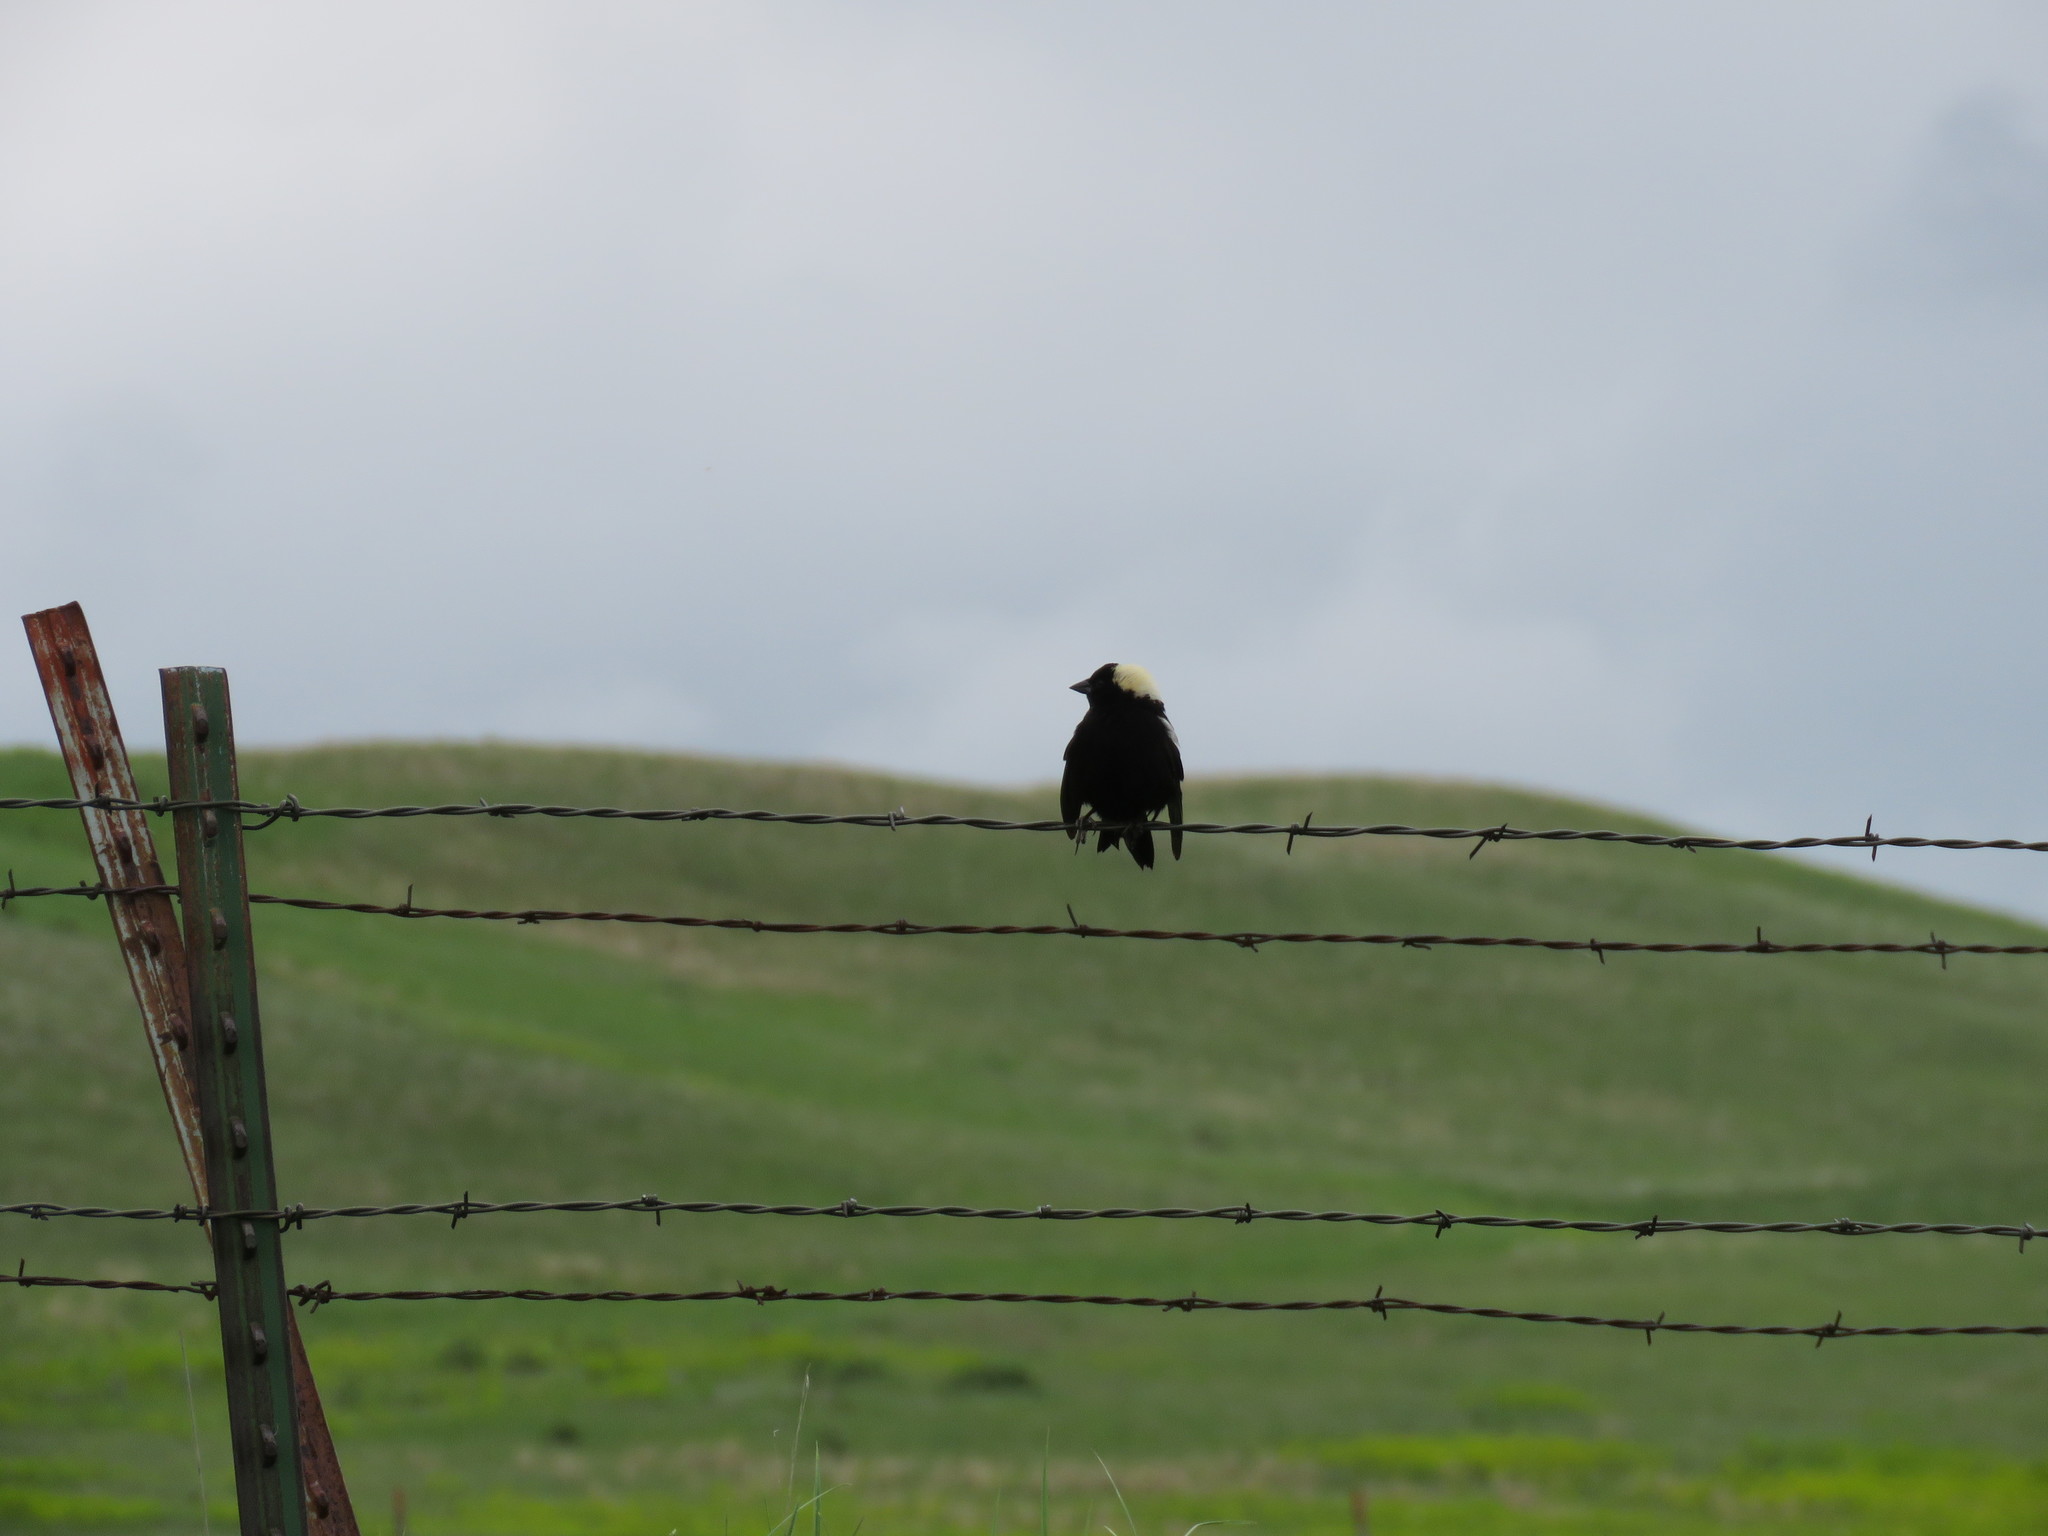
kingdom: Animalia
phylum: Chordata
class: Aves
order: Passeriformes
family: Icteridae
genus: Dolichonyx
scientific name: Dolichonyx oryzivorus
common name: Bobolink
